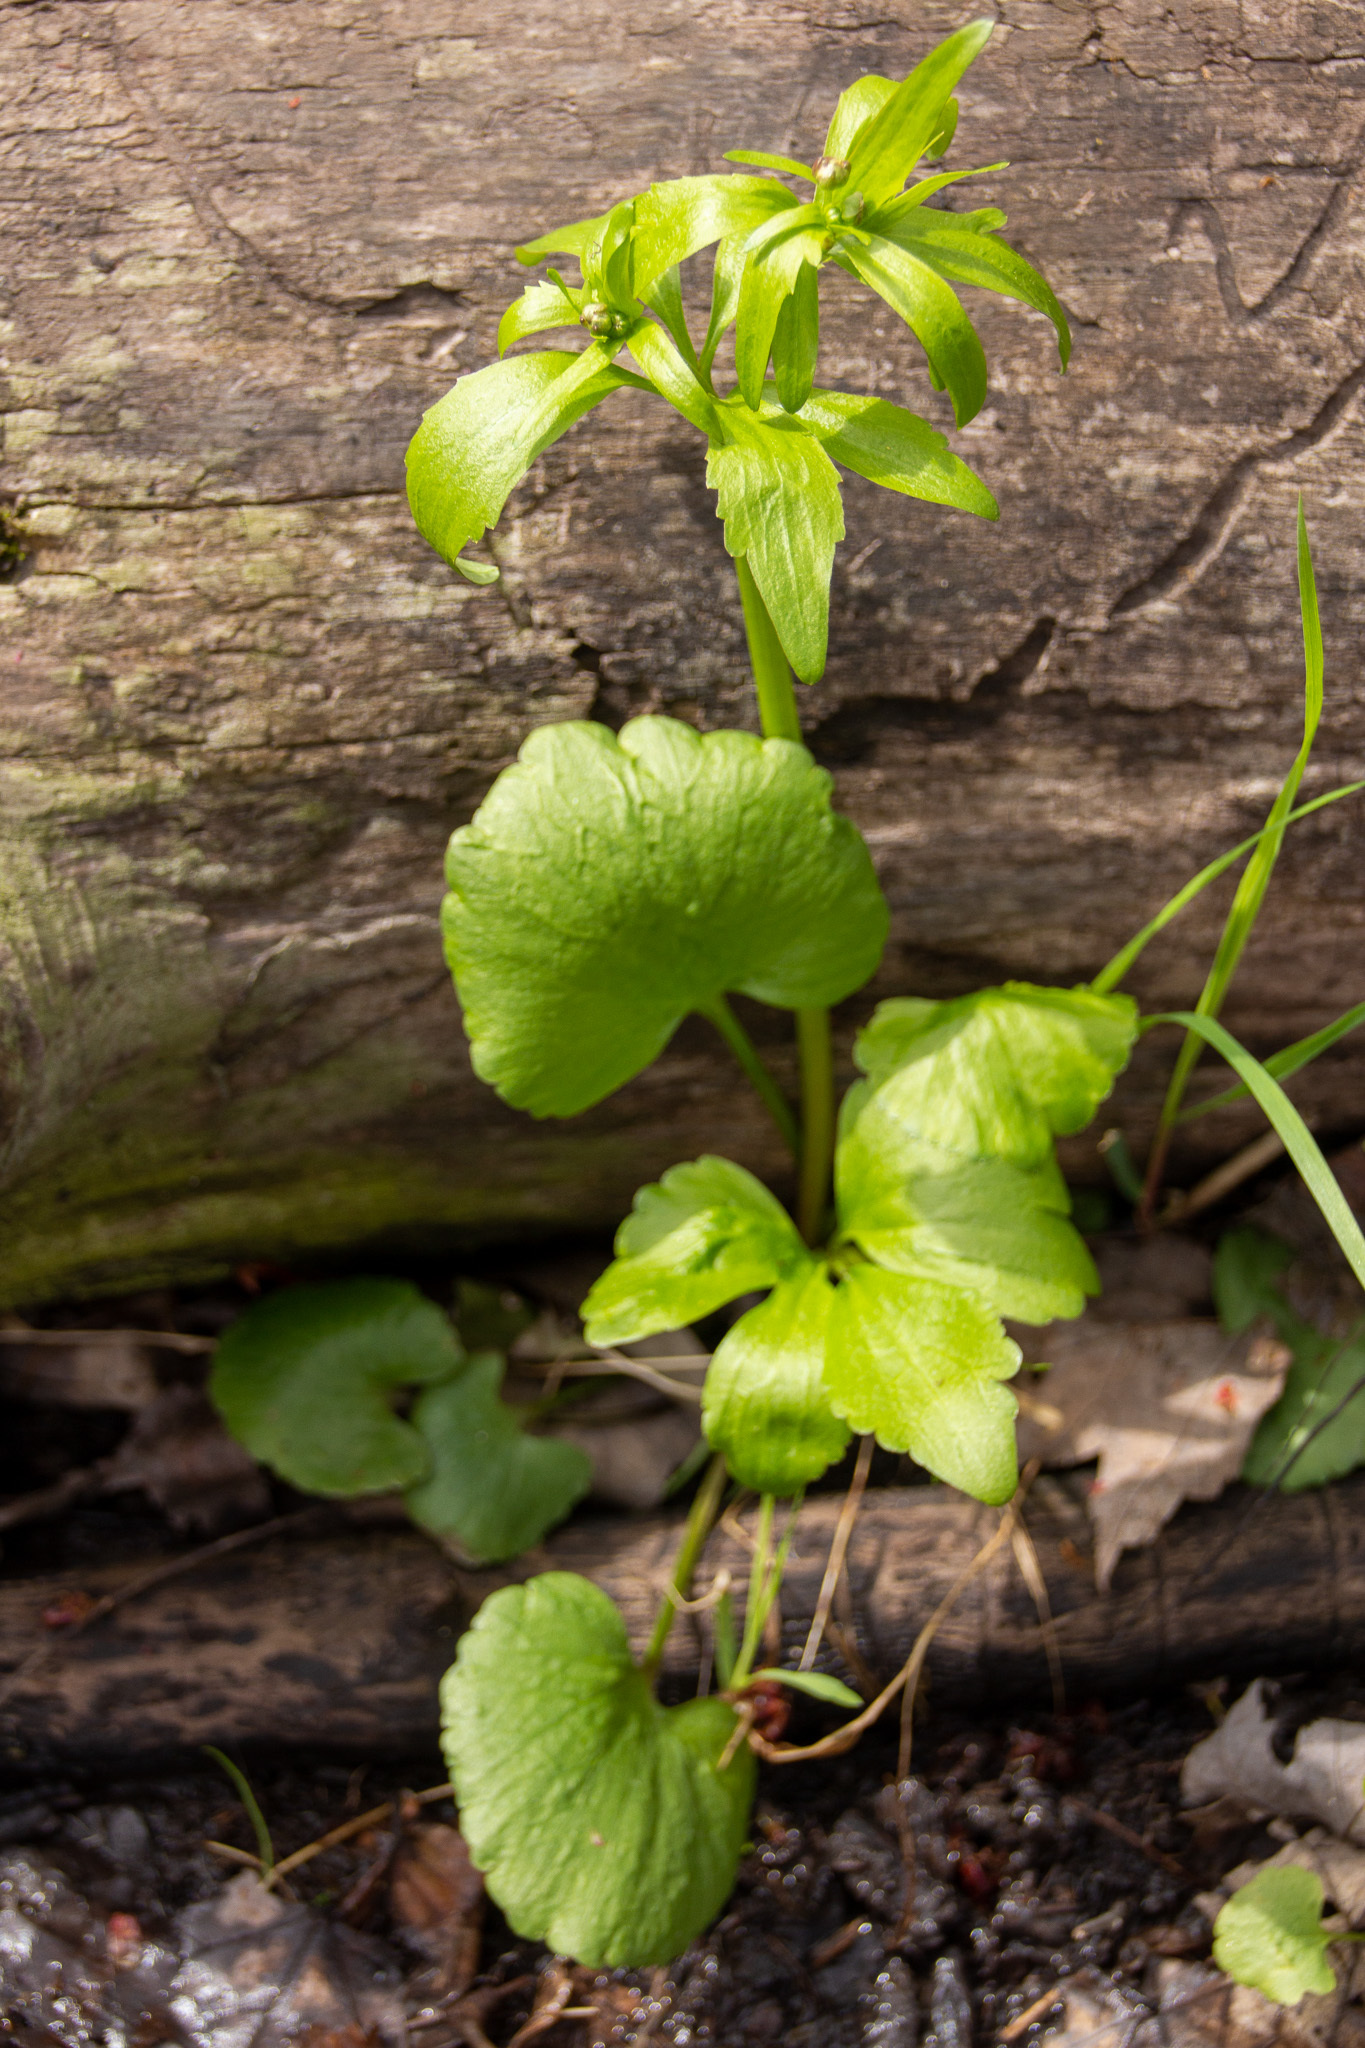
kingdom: Plantae
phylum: Tracheophyta
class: Magnoliopsida
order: Ranunculales
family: Ranunculaceae
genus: Ranunculus
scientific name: Ranunculus abortivus
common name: Early wood buttercup
